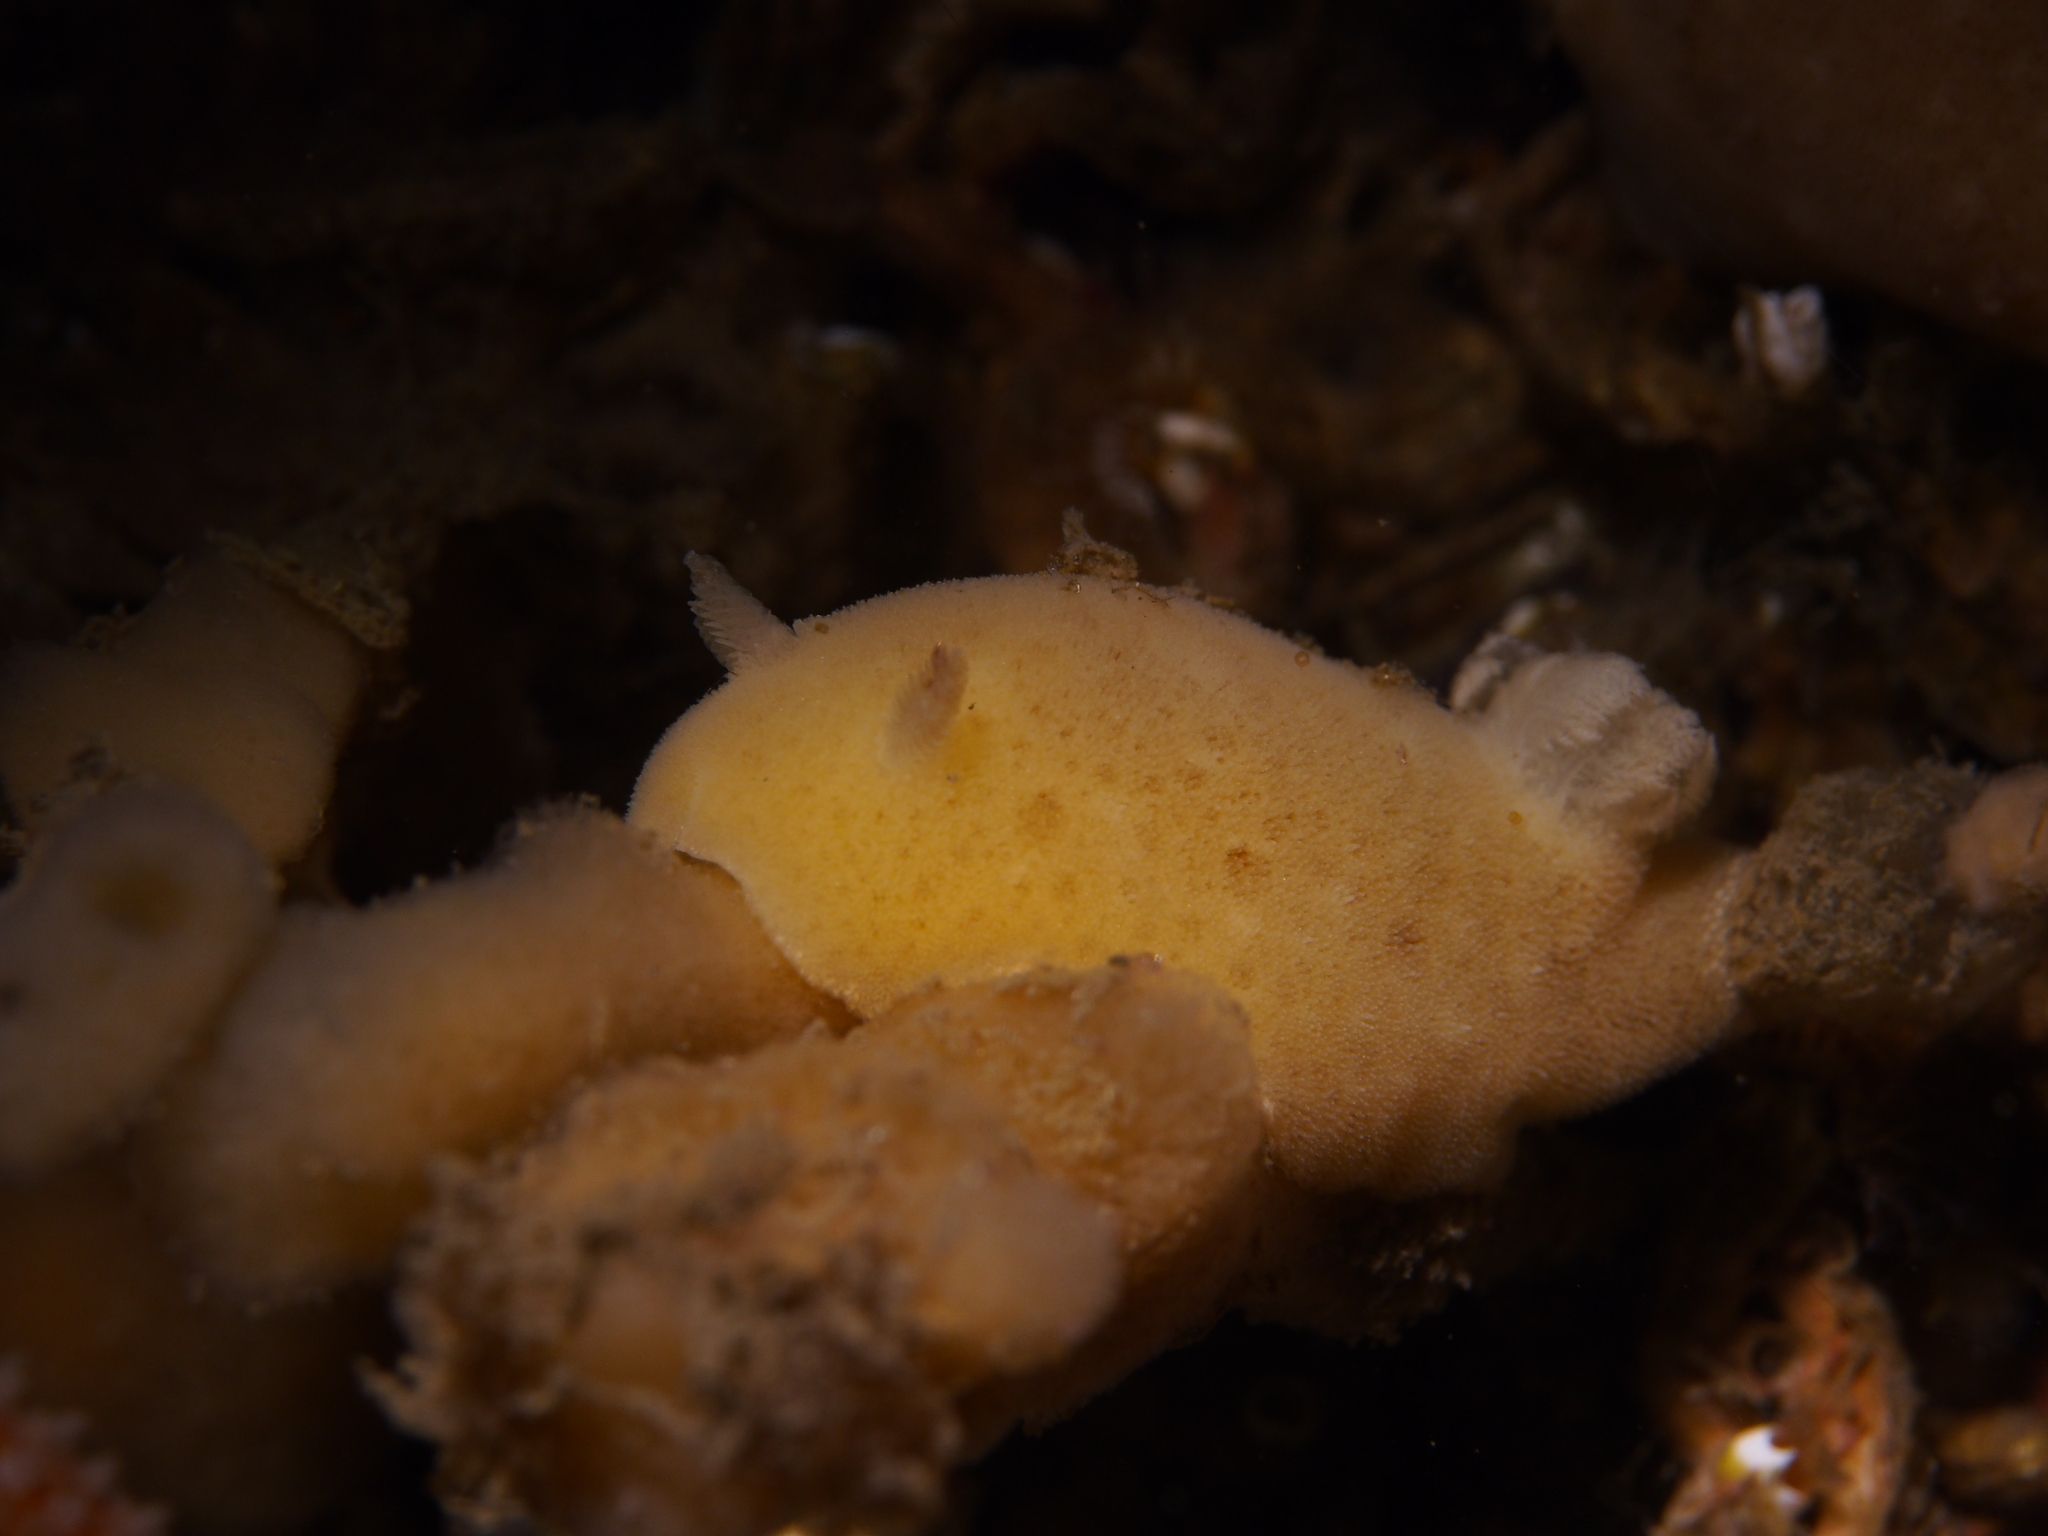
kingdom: Animalia
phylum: Mollusca
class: Gastropoda
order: Nudibranchia
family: Discodorididae
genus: Jorunna
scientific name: Jorunna tomentosa
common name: Grey sea slug
